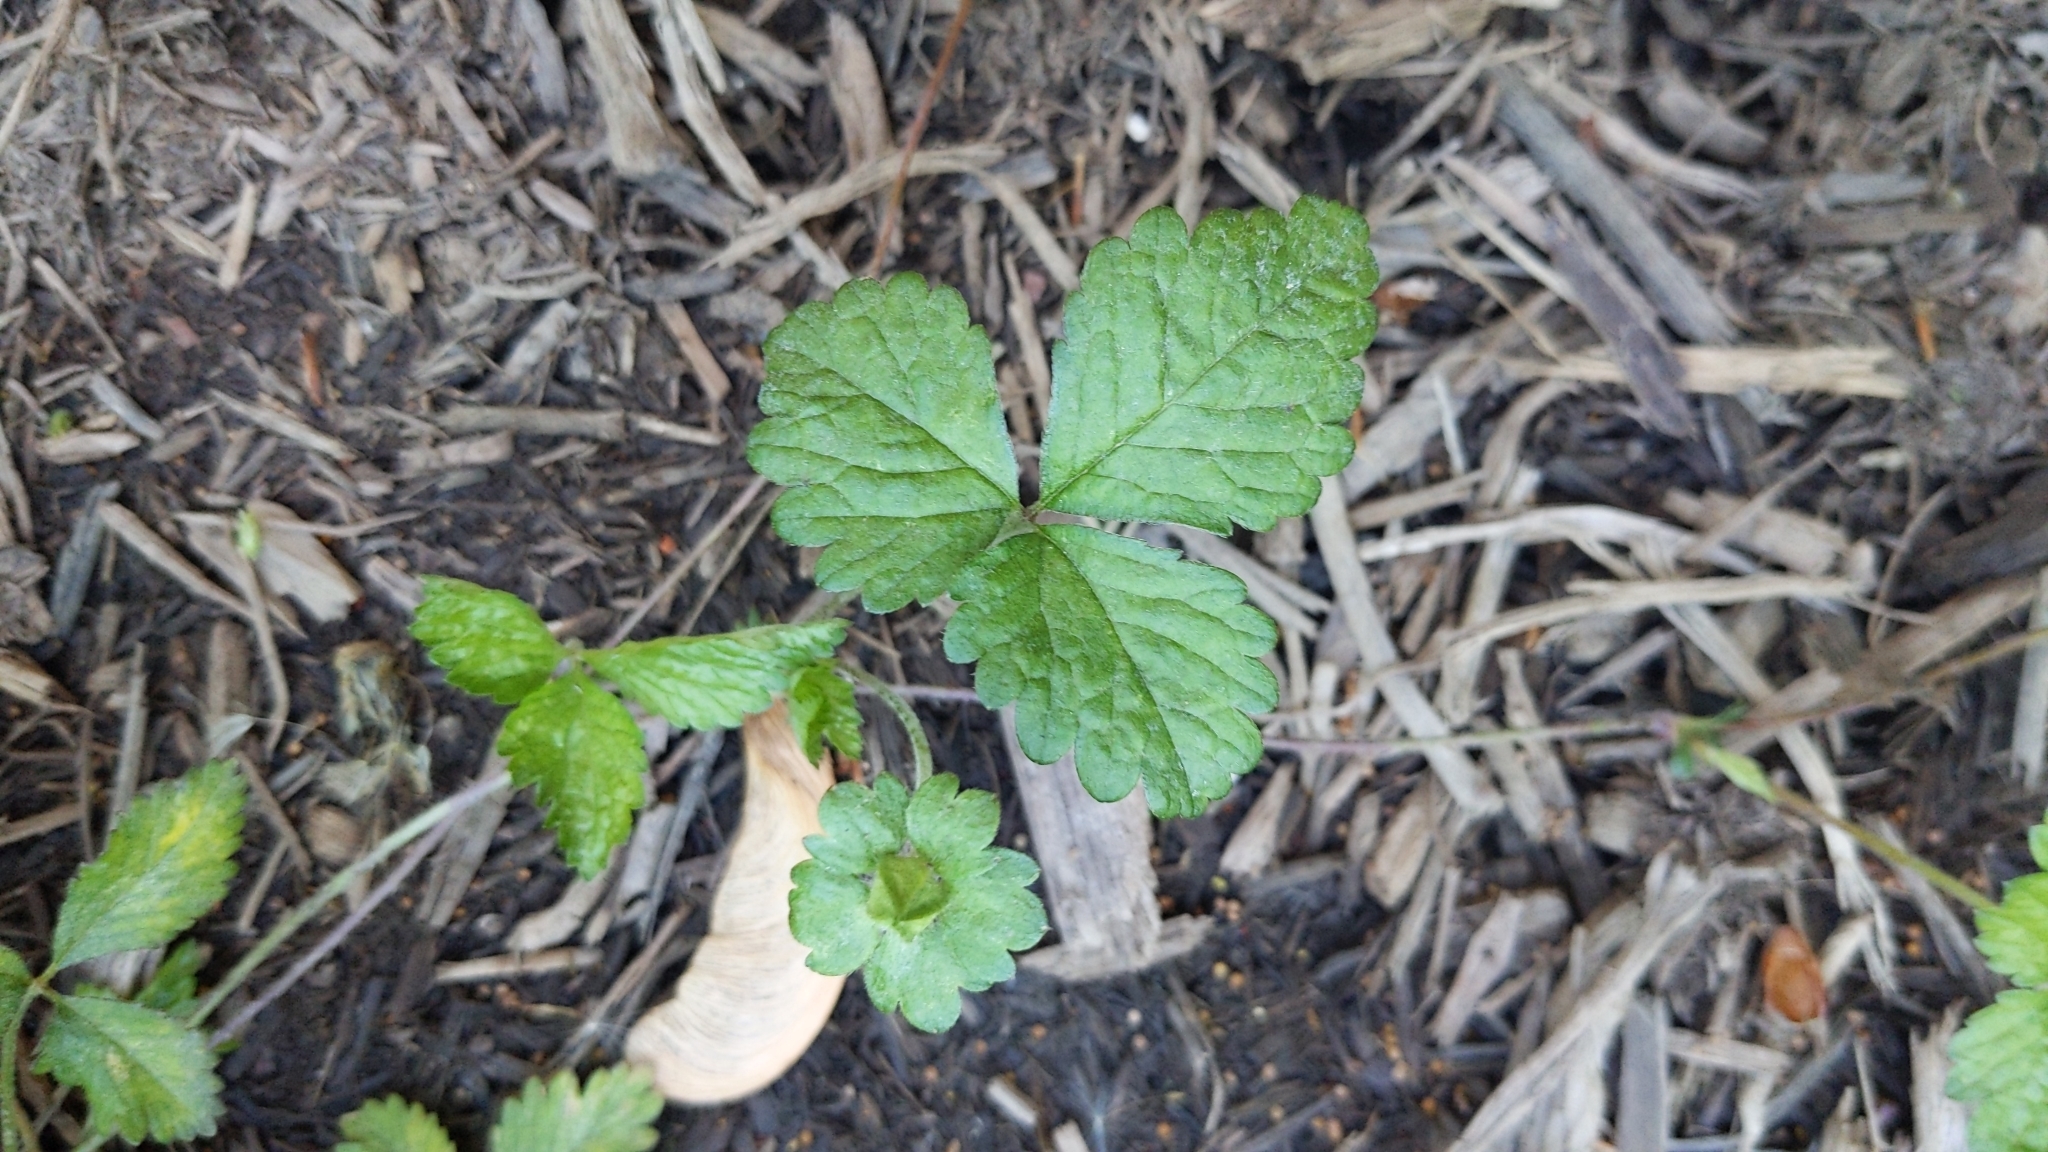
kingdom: Plantae
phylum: Tracheophyta
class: Magnoliopsida
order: Rosales
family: Rosaceae
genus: Potentilla
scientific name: Potentilla indica
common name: Yellow-flowered strawberry
